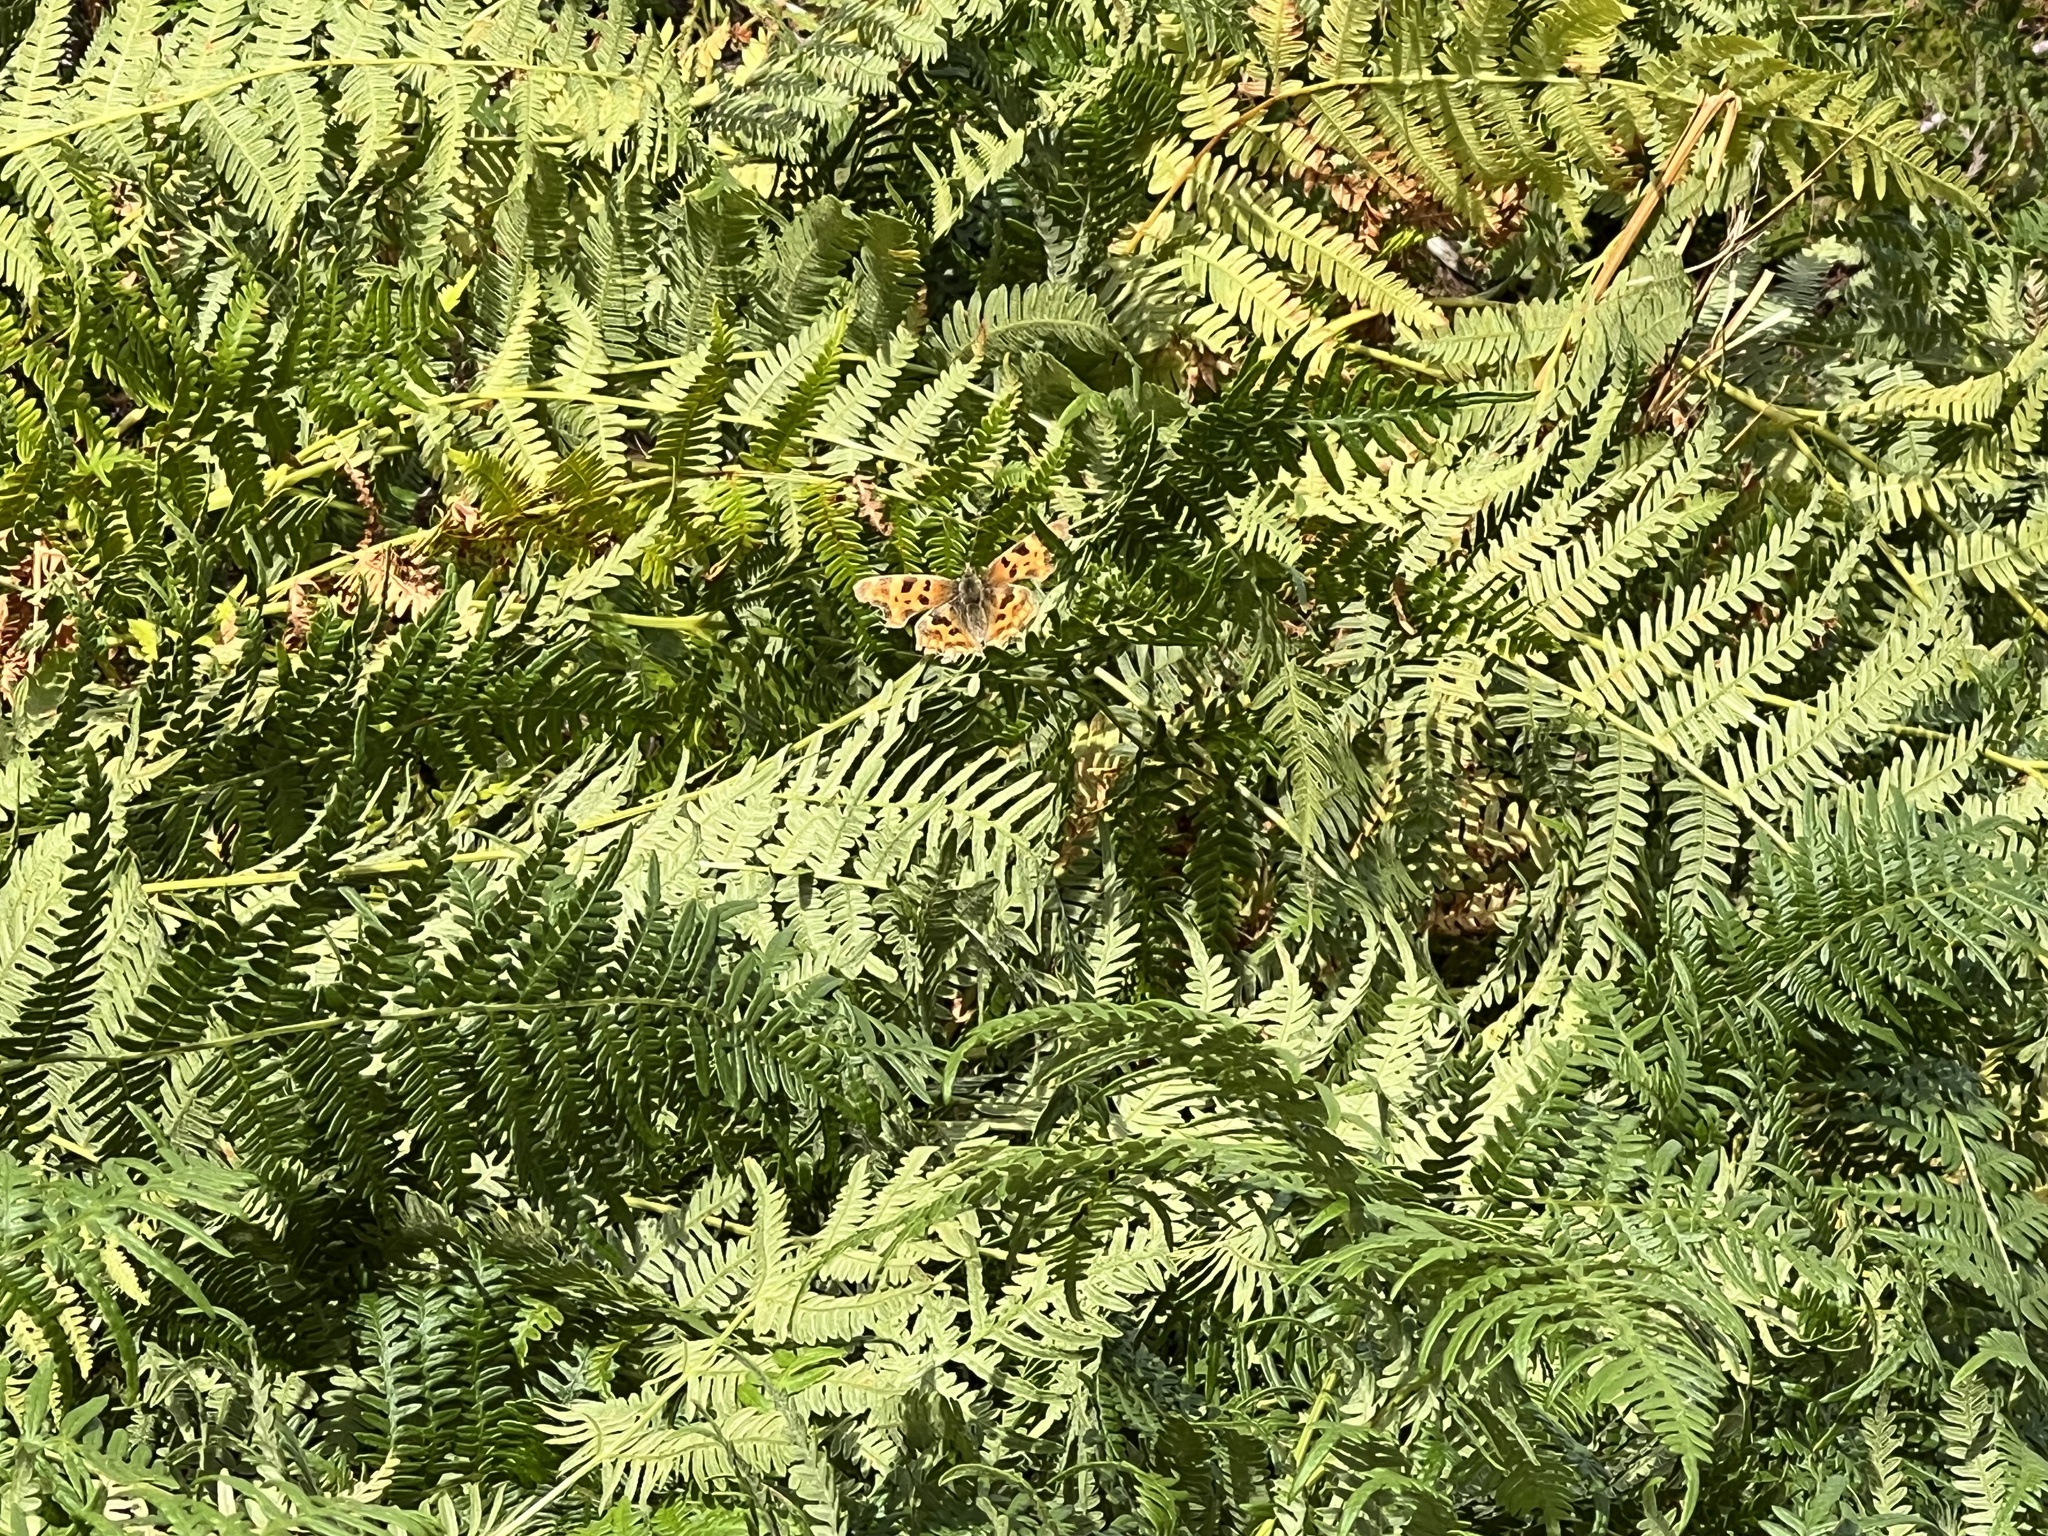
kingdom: Animalia
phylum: Arthropoda
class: Insecta
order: Lepidoptera
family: Nymphalidae
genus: Polygonia
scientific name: Polygonia c-album
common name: Comma
